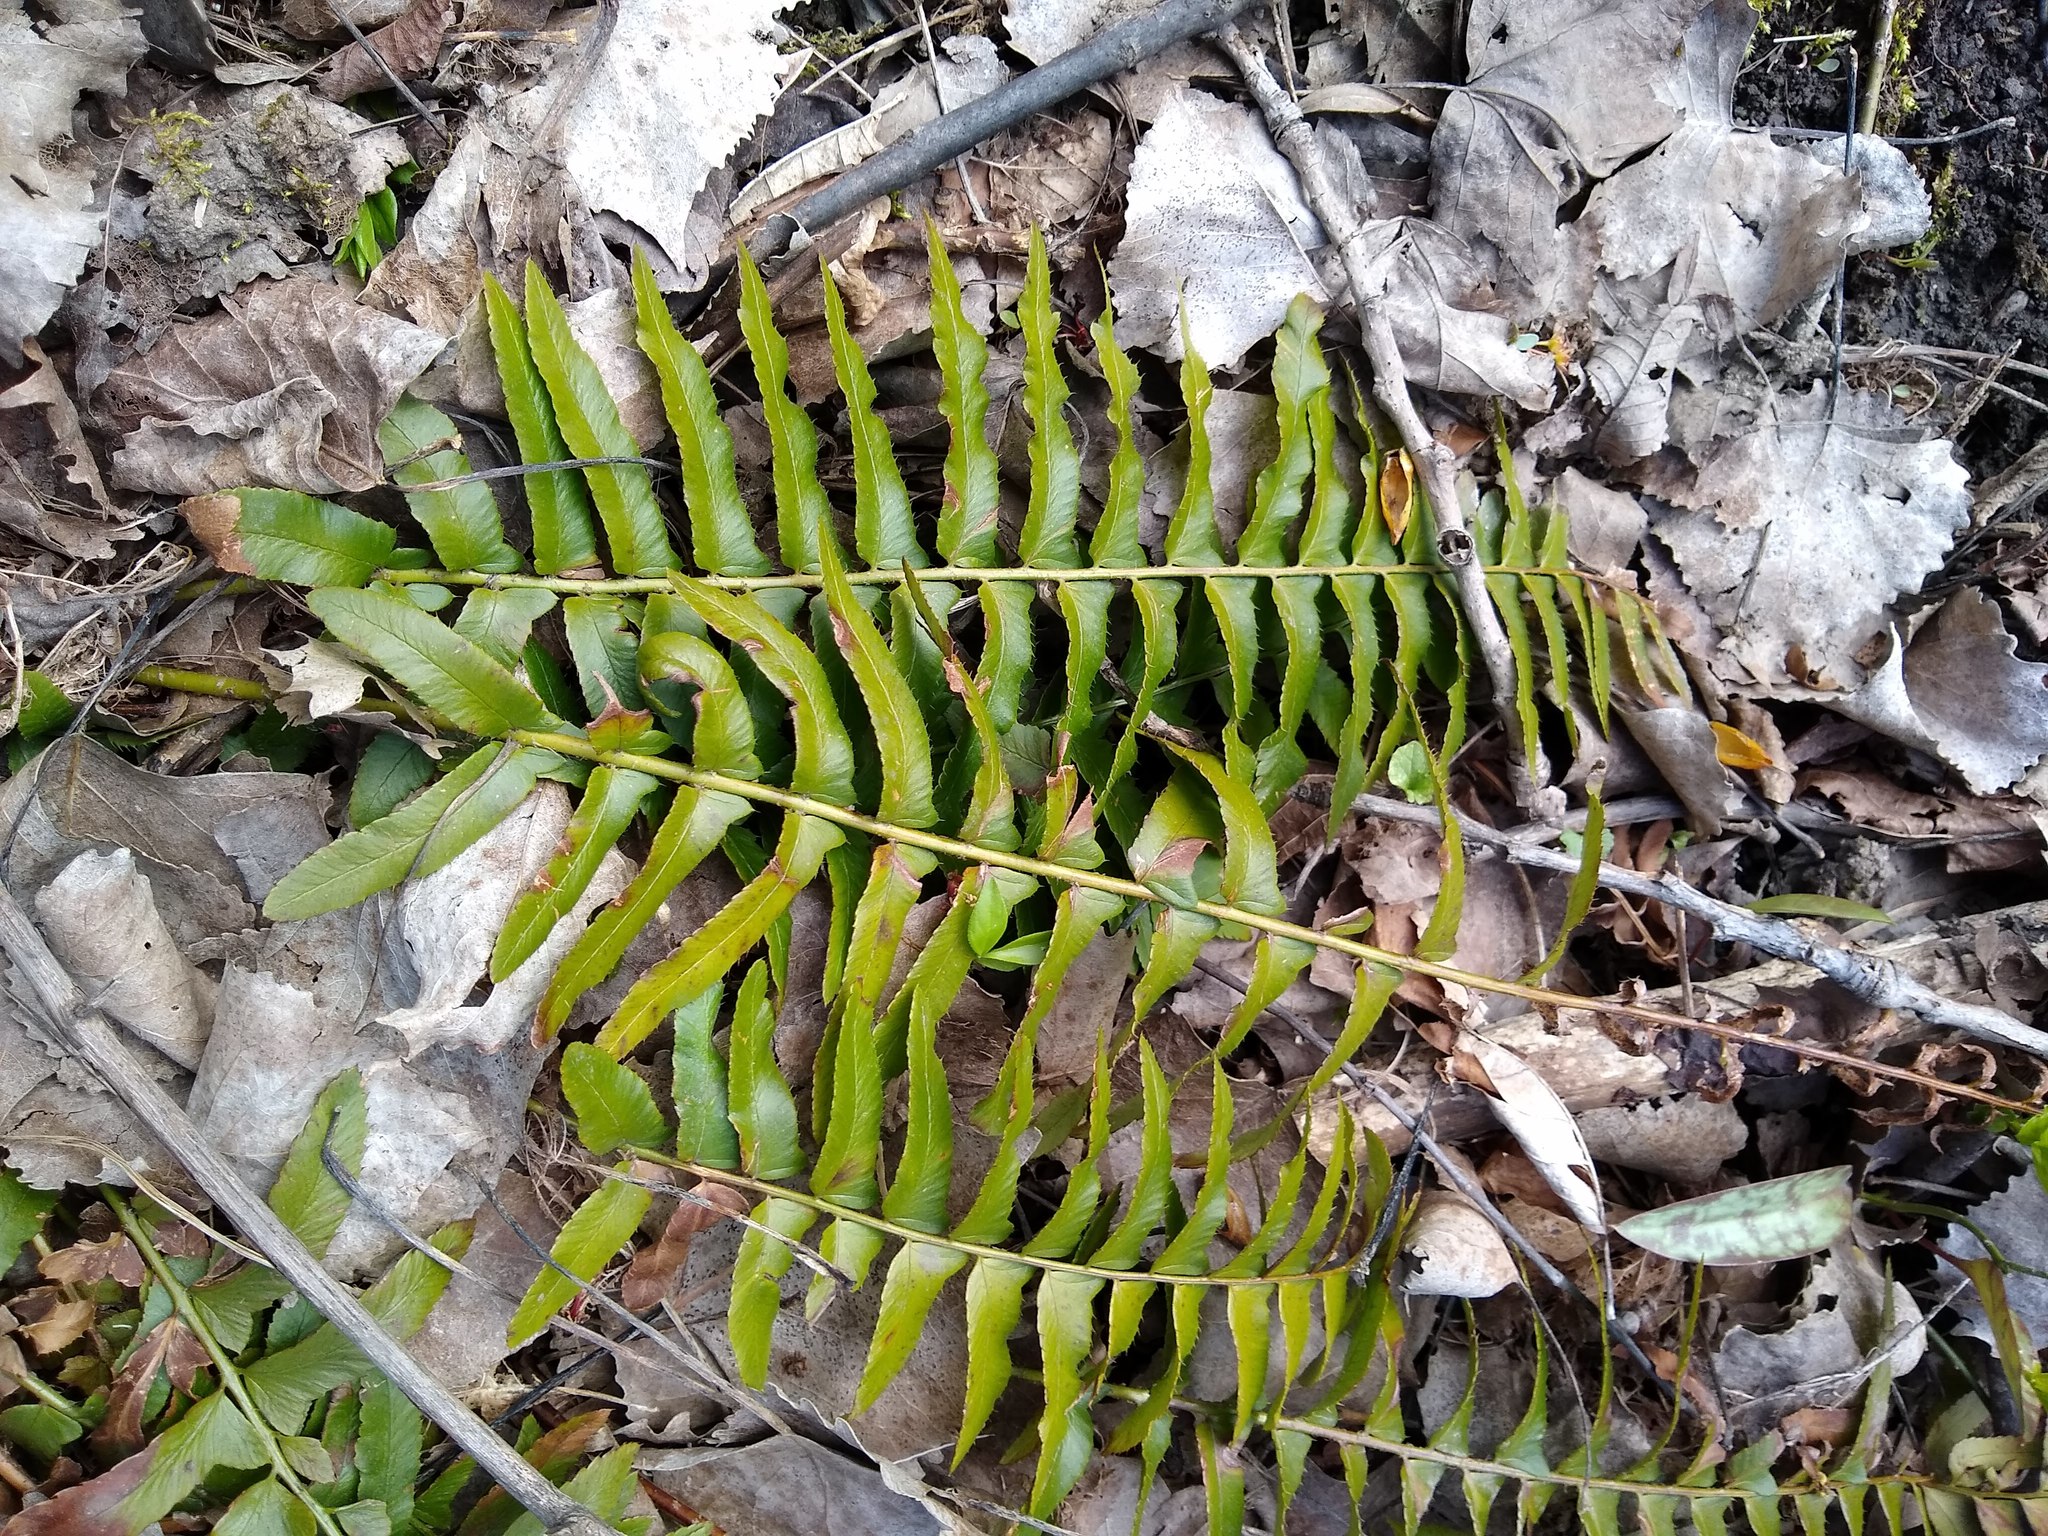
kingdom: Plantae
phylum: Tracheophyta
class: Polypodiopsida
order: Polypodiales
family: Dryopteridaceae
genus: Polystichum
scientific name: Polystichum acrostichoides
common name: Christmas fern
